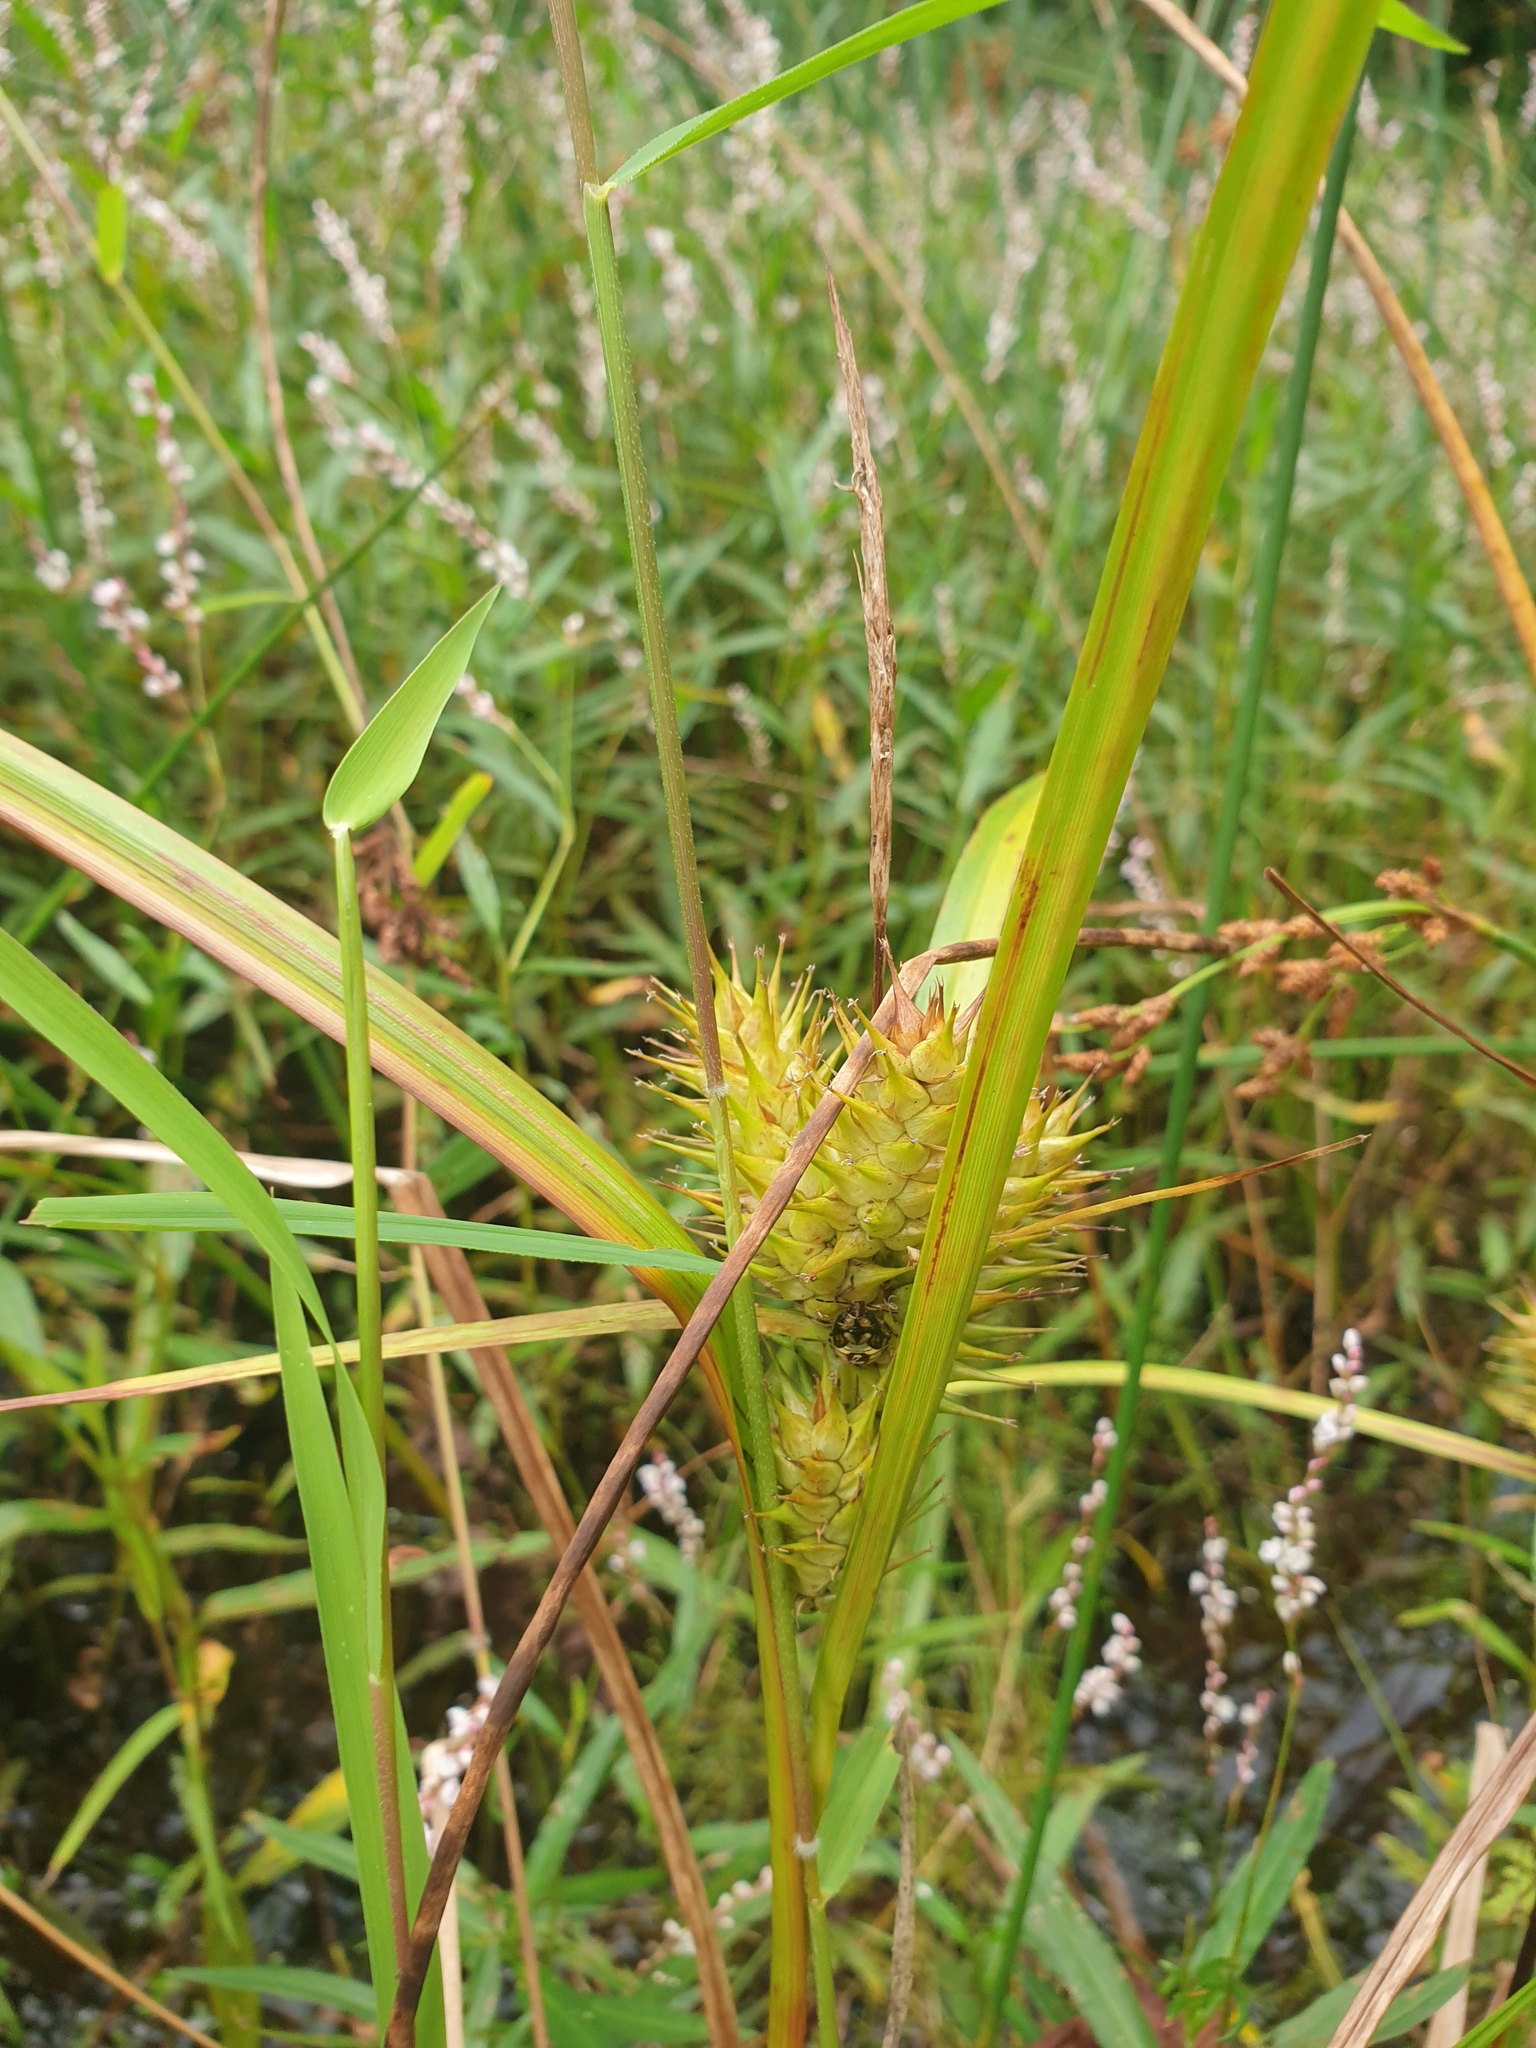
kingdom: Plantae
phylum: Tracheophyta
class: Liliopsida
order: Poales
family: Cyperaceae
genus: Carex
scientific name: Carex lupulina
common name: Hop sedge
